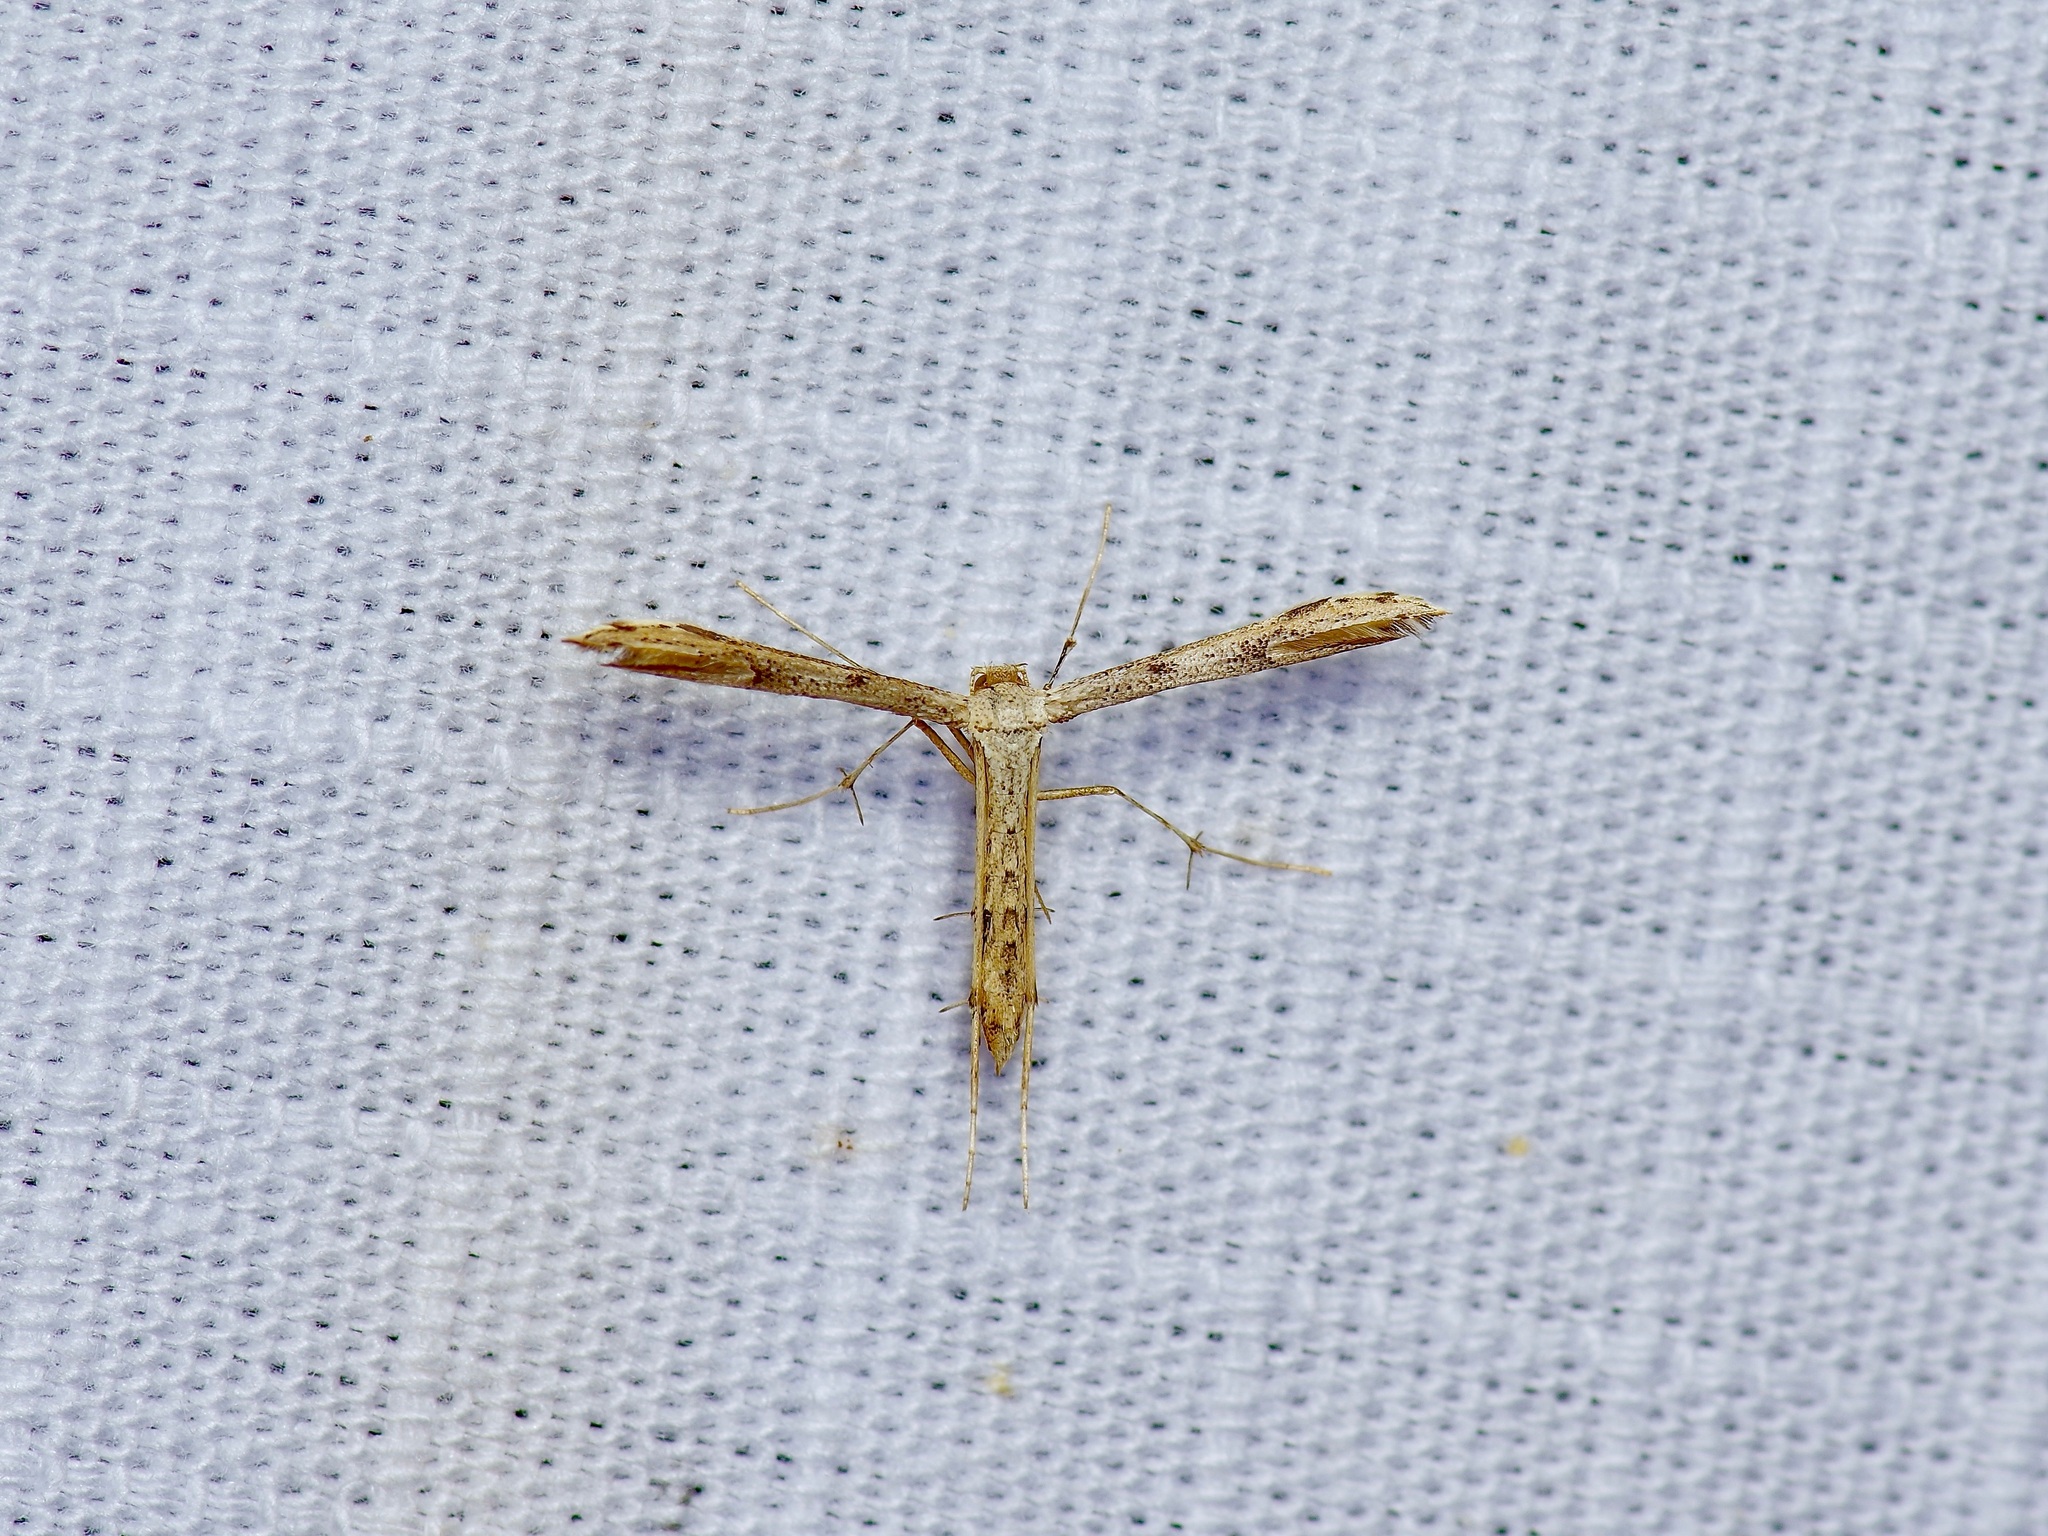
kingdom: Animalia
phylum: Arthropoda
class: Insecta
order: Lepidoptera
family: Pterophoridae
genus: Adaina
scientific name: Adaina ambrosiae
